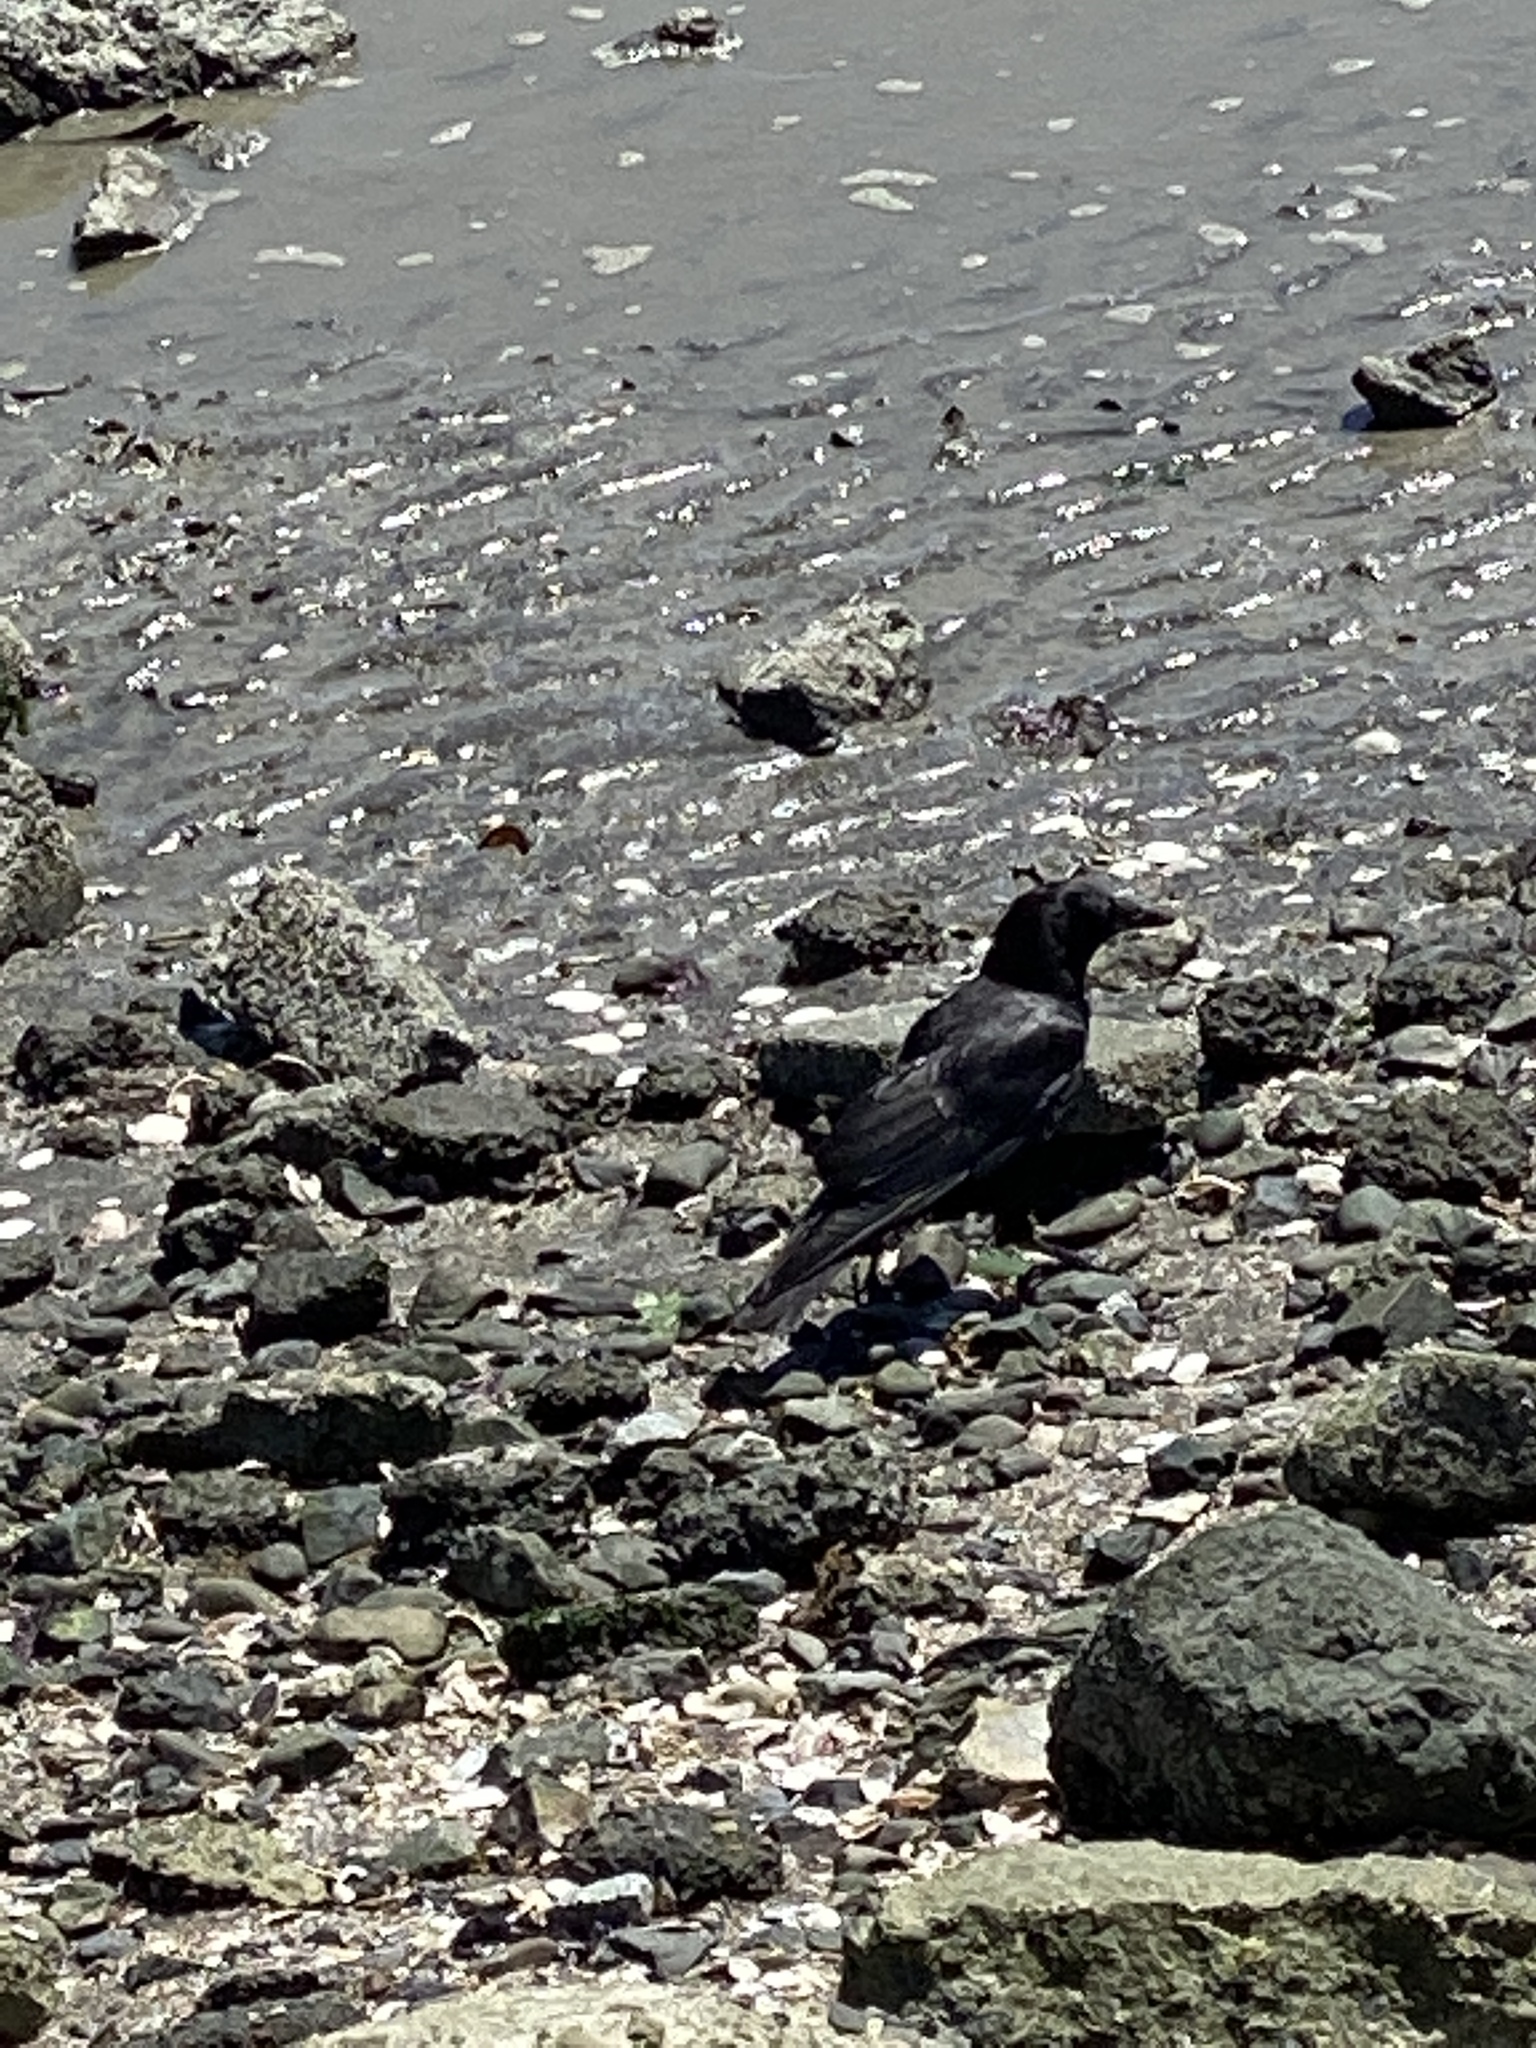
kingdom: Animalia
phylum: Chordata
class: Aves
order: Passeriformes
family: Corvidae
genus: Corvus
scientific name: Corvus brachyrhynchos
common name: American crow
